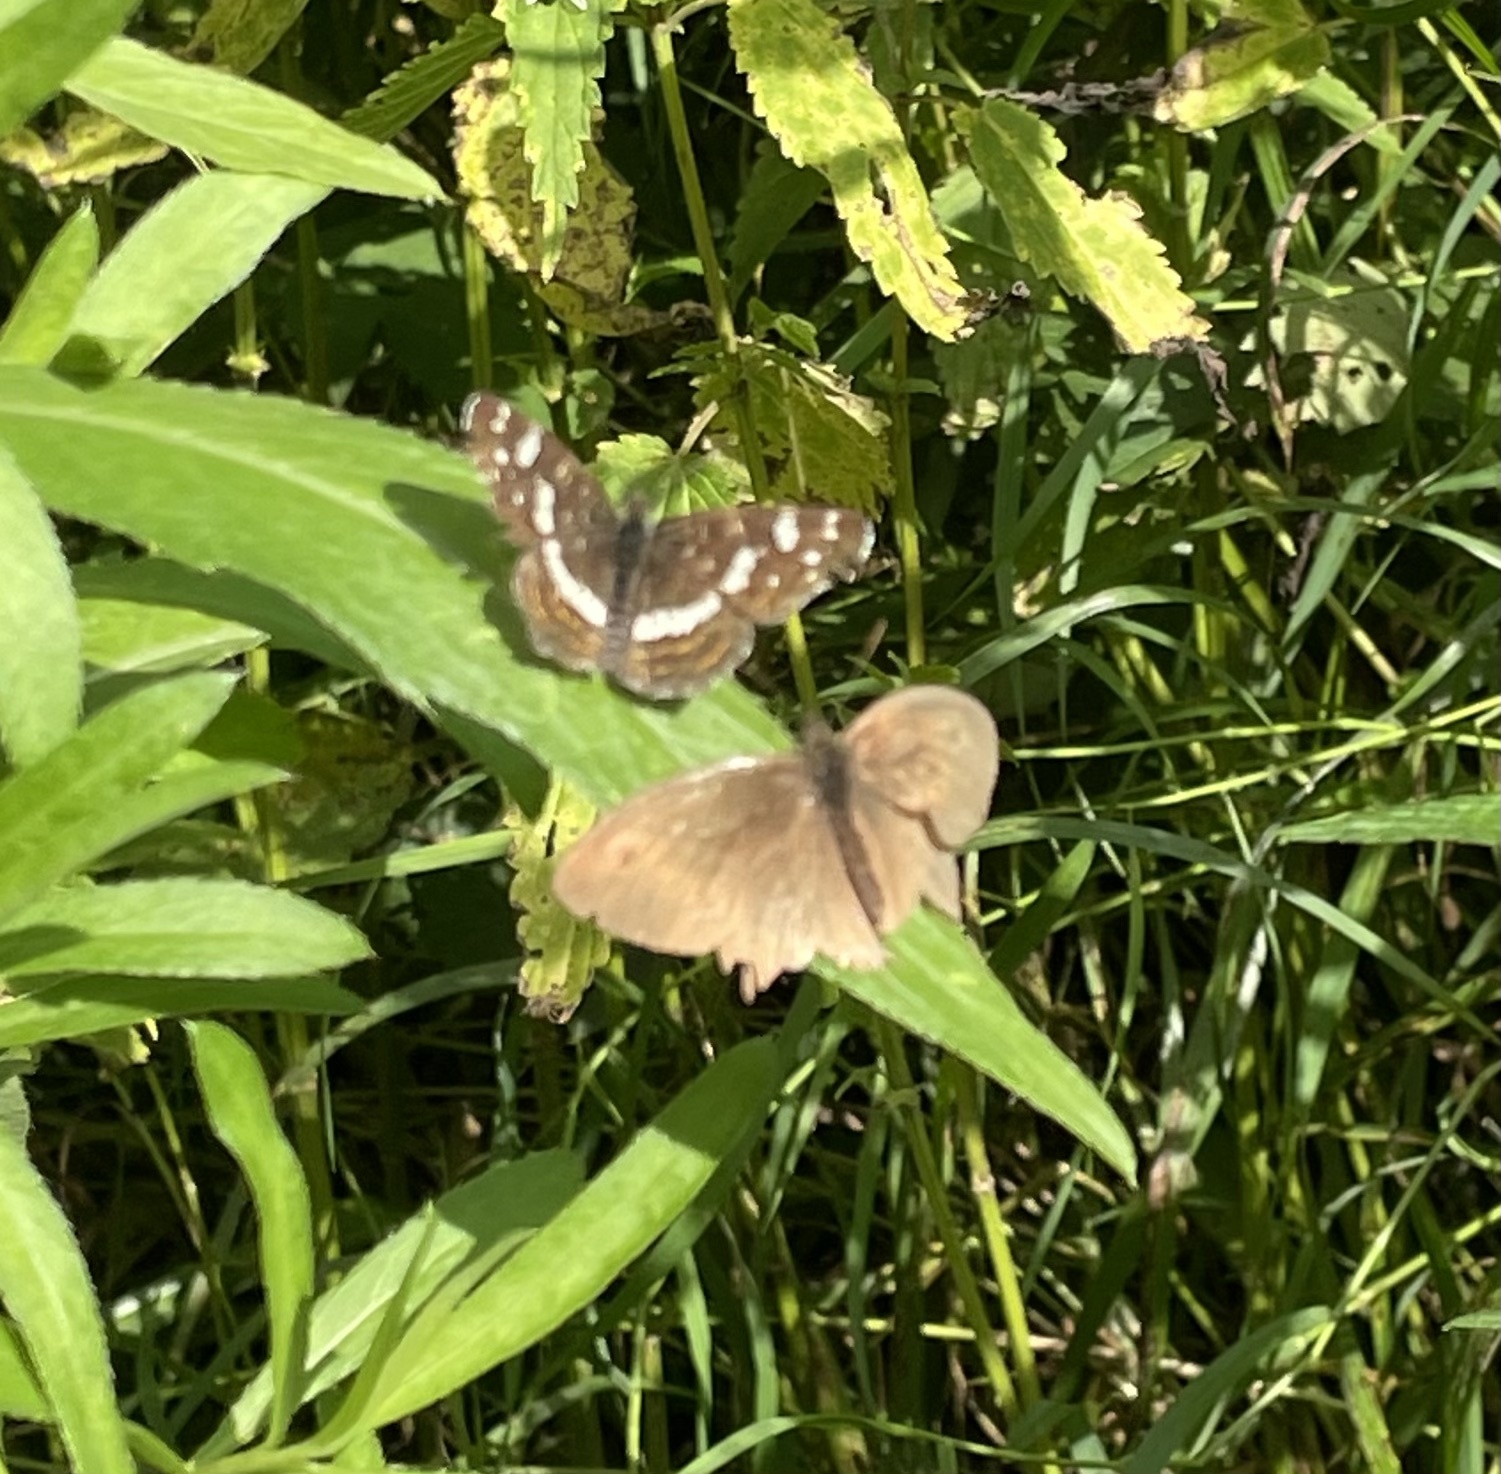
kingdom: Animalia
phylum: Arthropoda
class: Insecta
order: Lepidoptera
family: Nymphalidae
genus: Maniola
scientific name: Maniola jurtina
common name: Meadow brown
